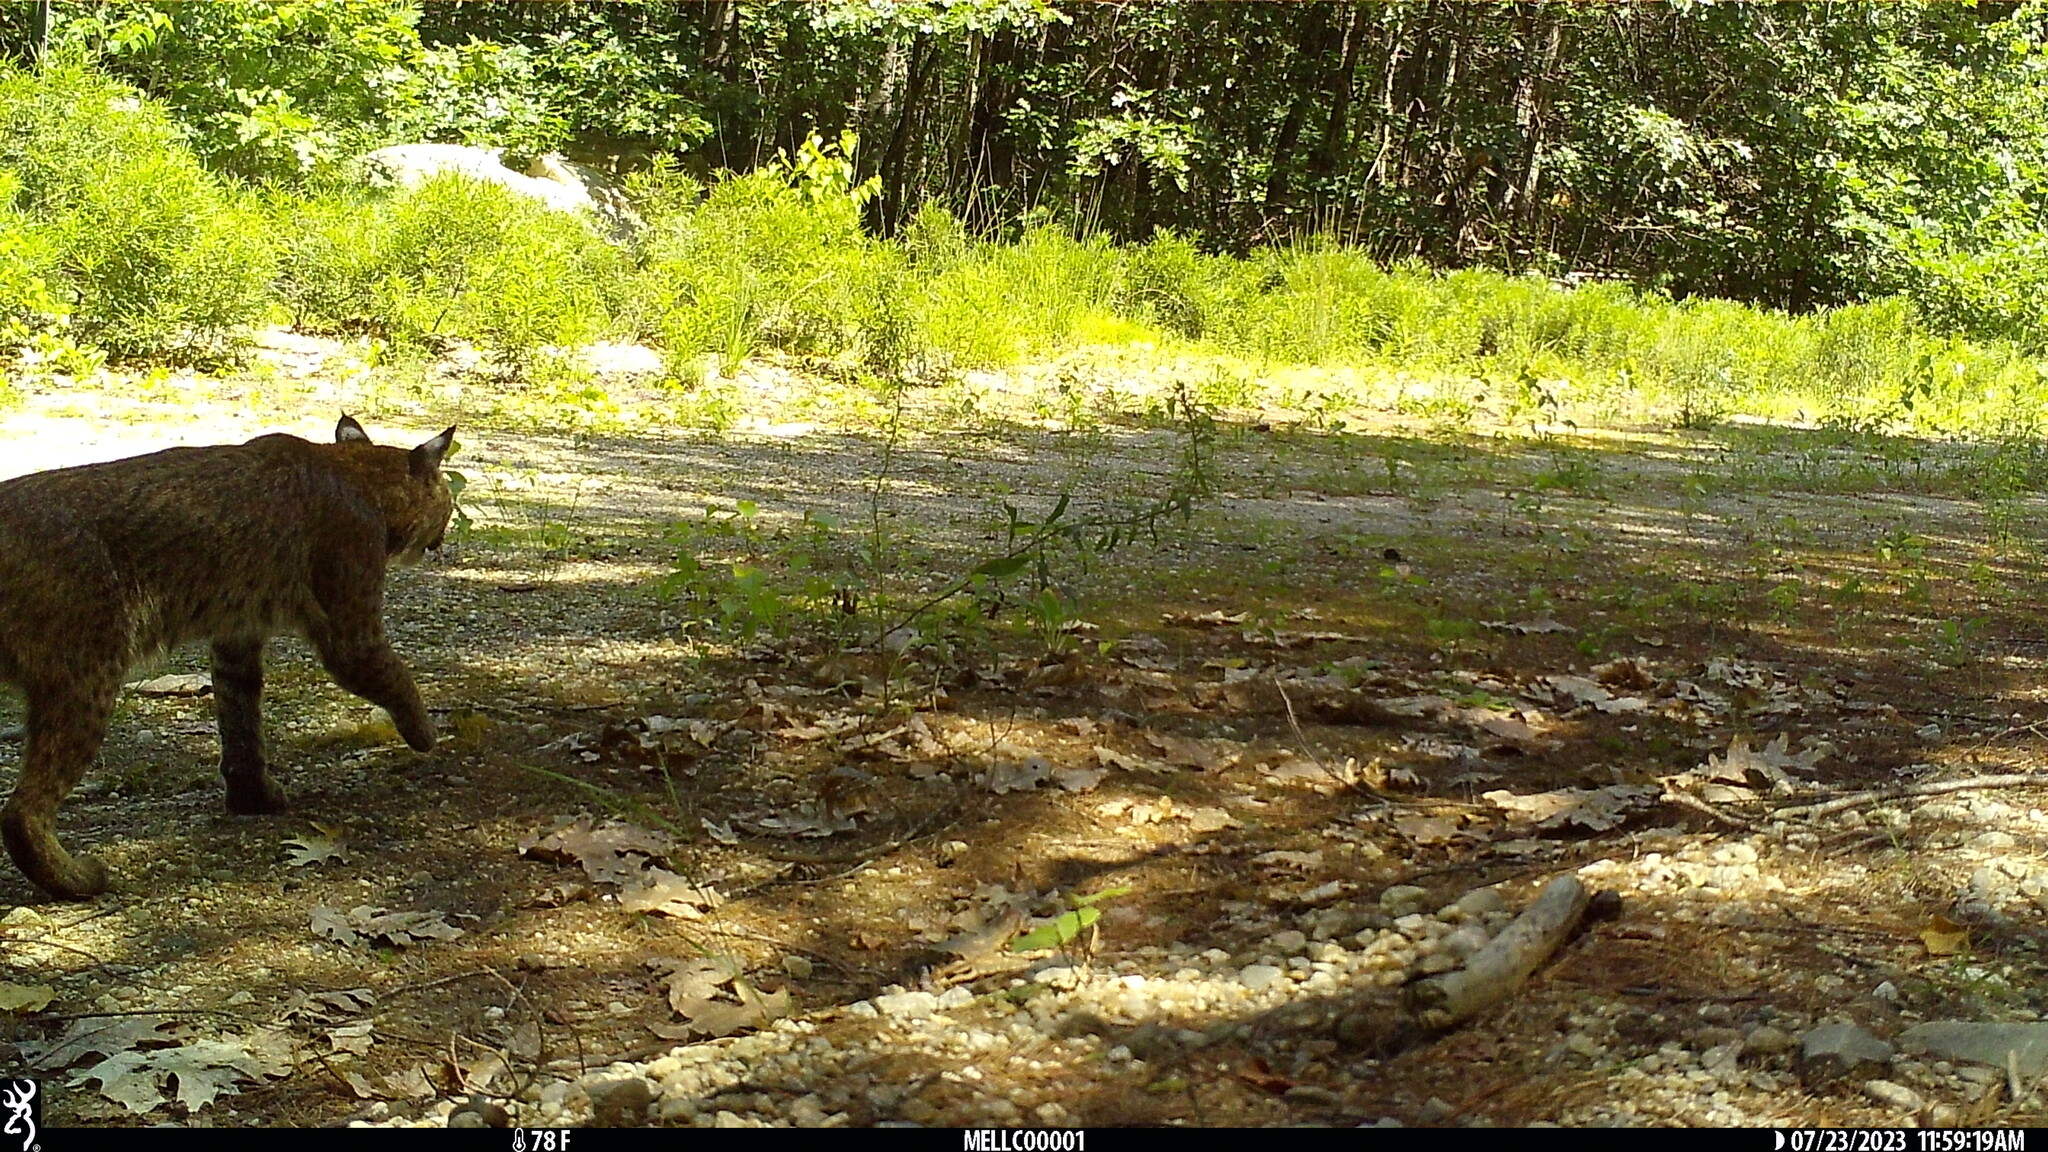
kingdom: Animalia
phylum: Chordata
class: Mammalia
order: Carnivora
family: Felidae
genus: Lynx
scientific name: Lynx rufus
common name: Bobcat
